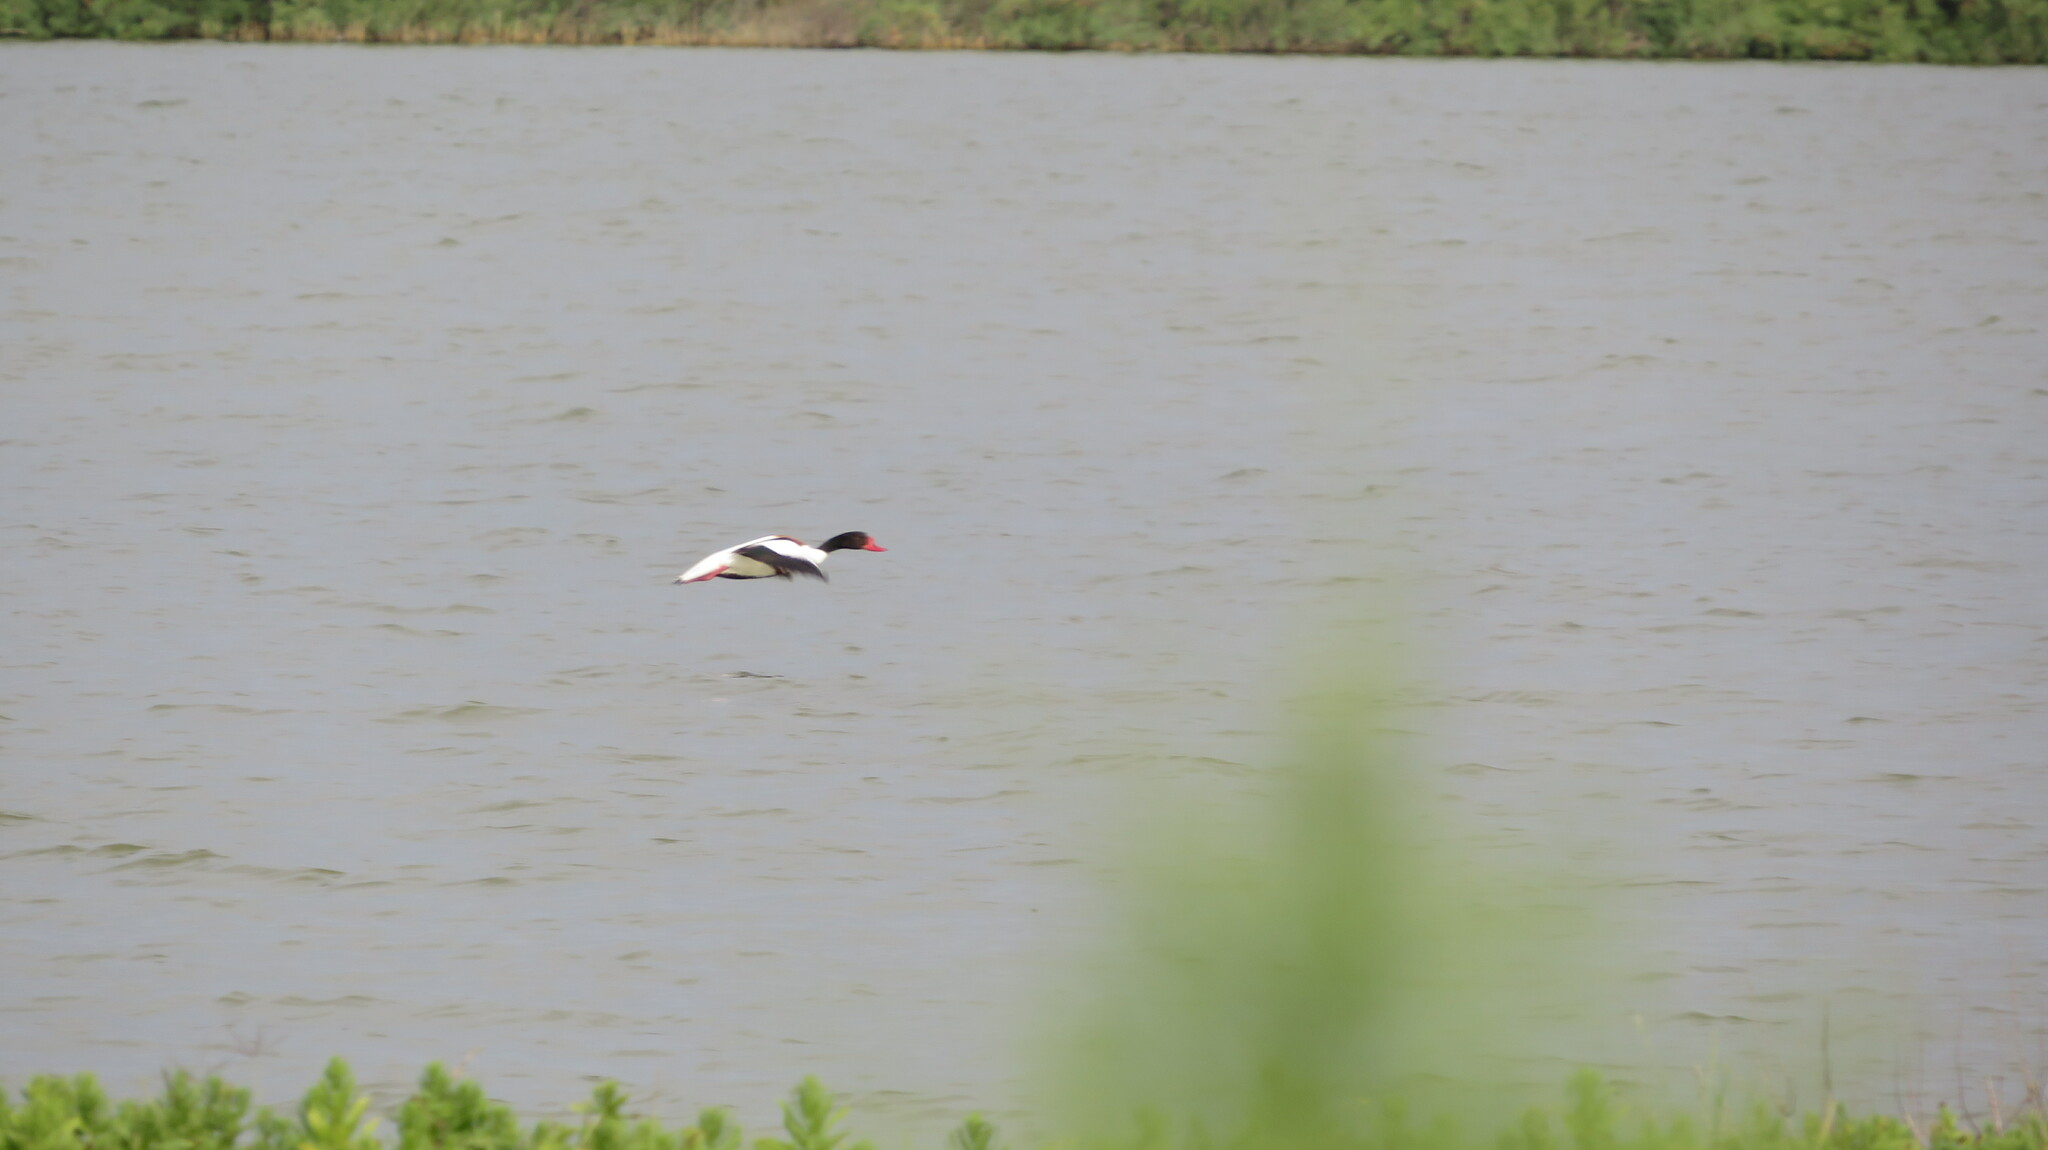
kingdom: Animalia
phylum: Chordata
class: Aves
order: Anseriformes
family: Anatidae
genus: Tadorna
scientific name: Tadorna tadorna
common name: Common shelduck
